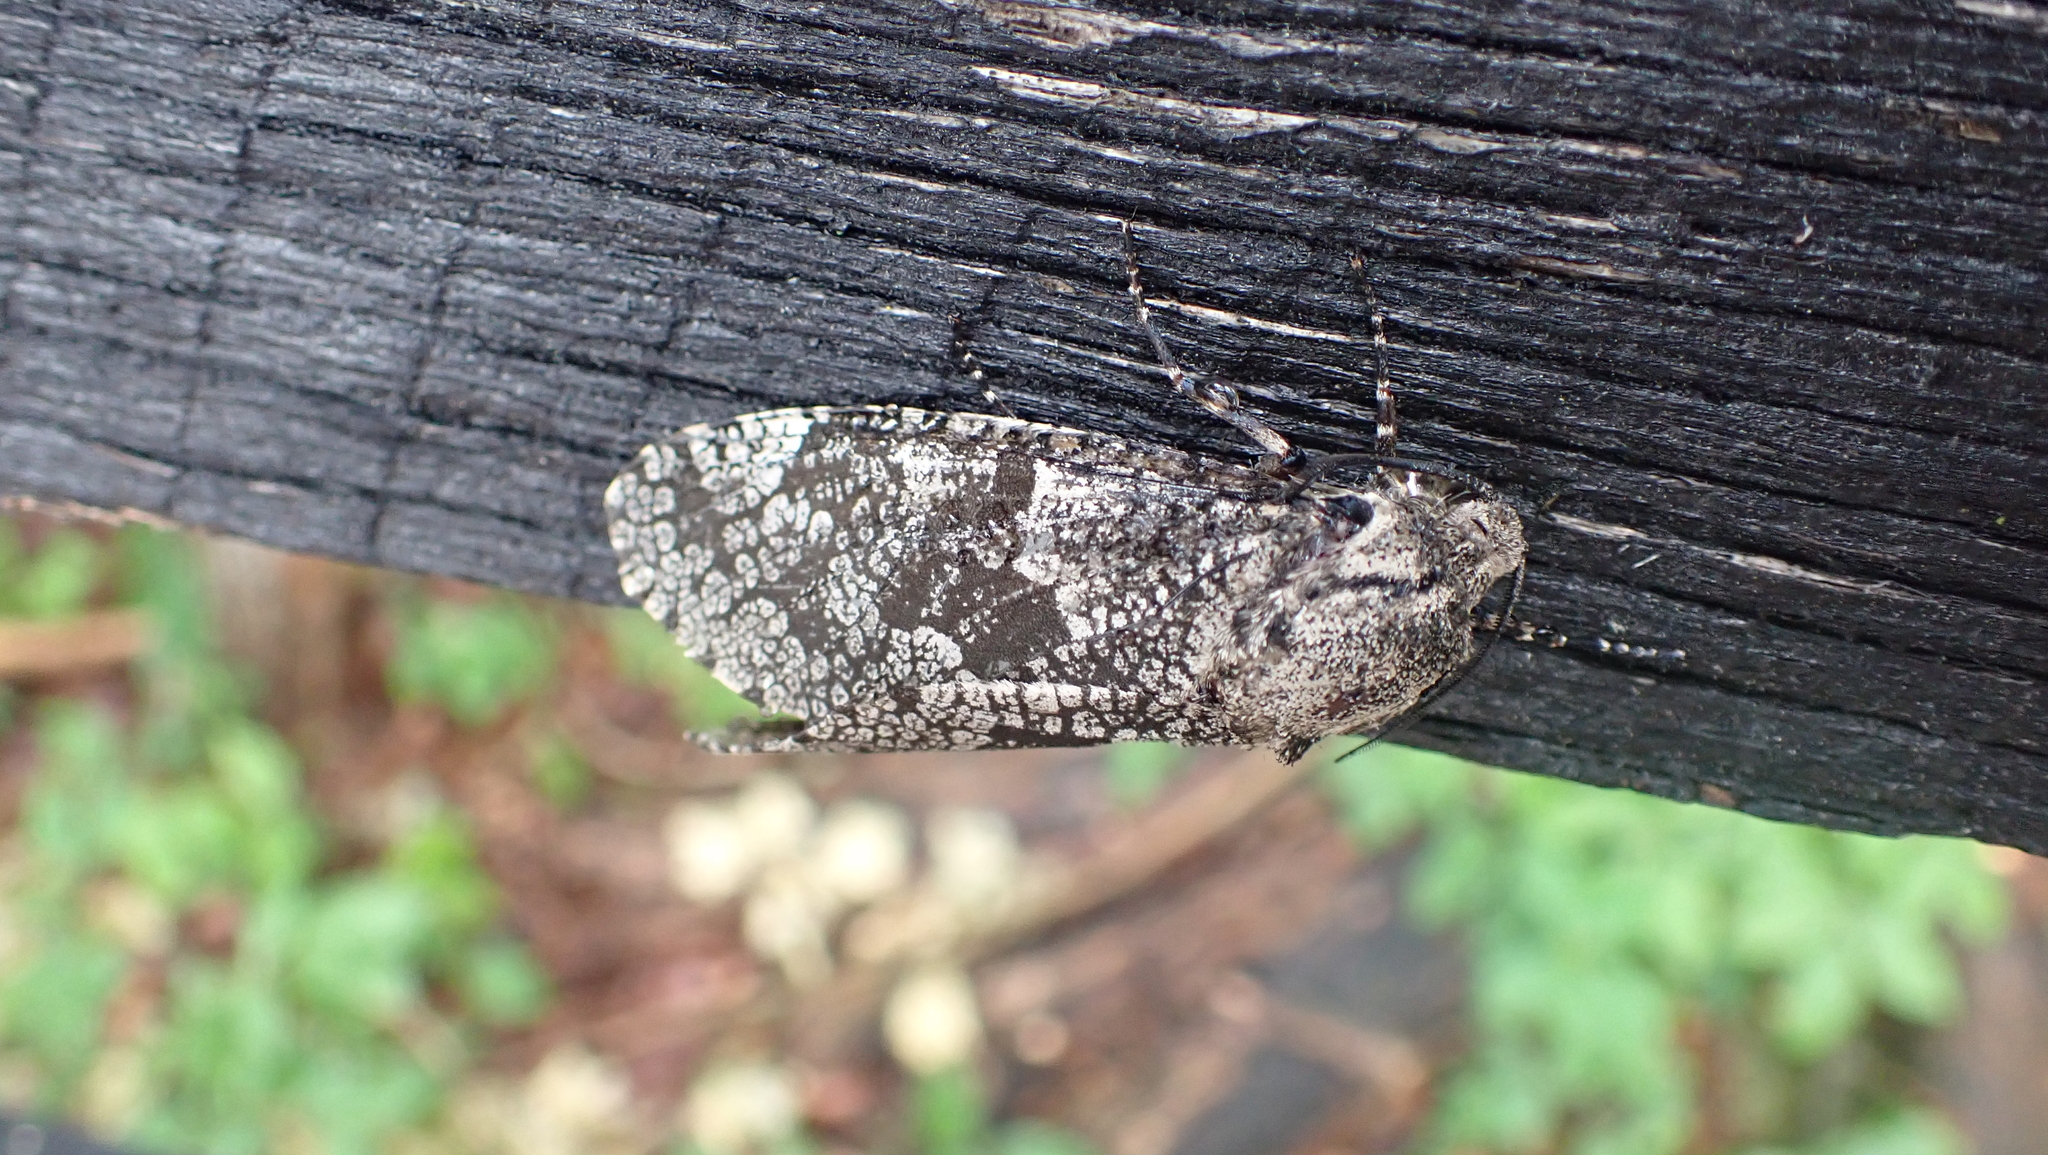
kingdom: Animalia
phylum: Arthropoda
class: Insecta
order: Lepidoptera
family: Cossidae
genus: Prionoxystus
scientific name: Prionoxystus robiniae
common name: Carpenterworm
